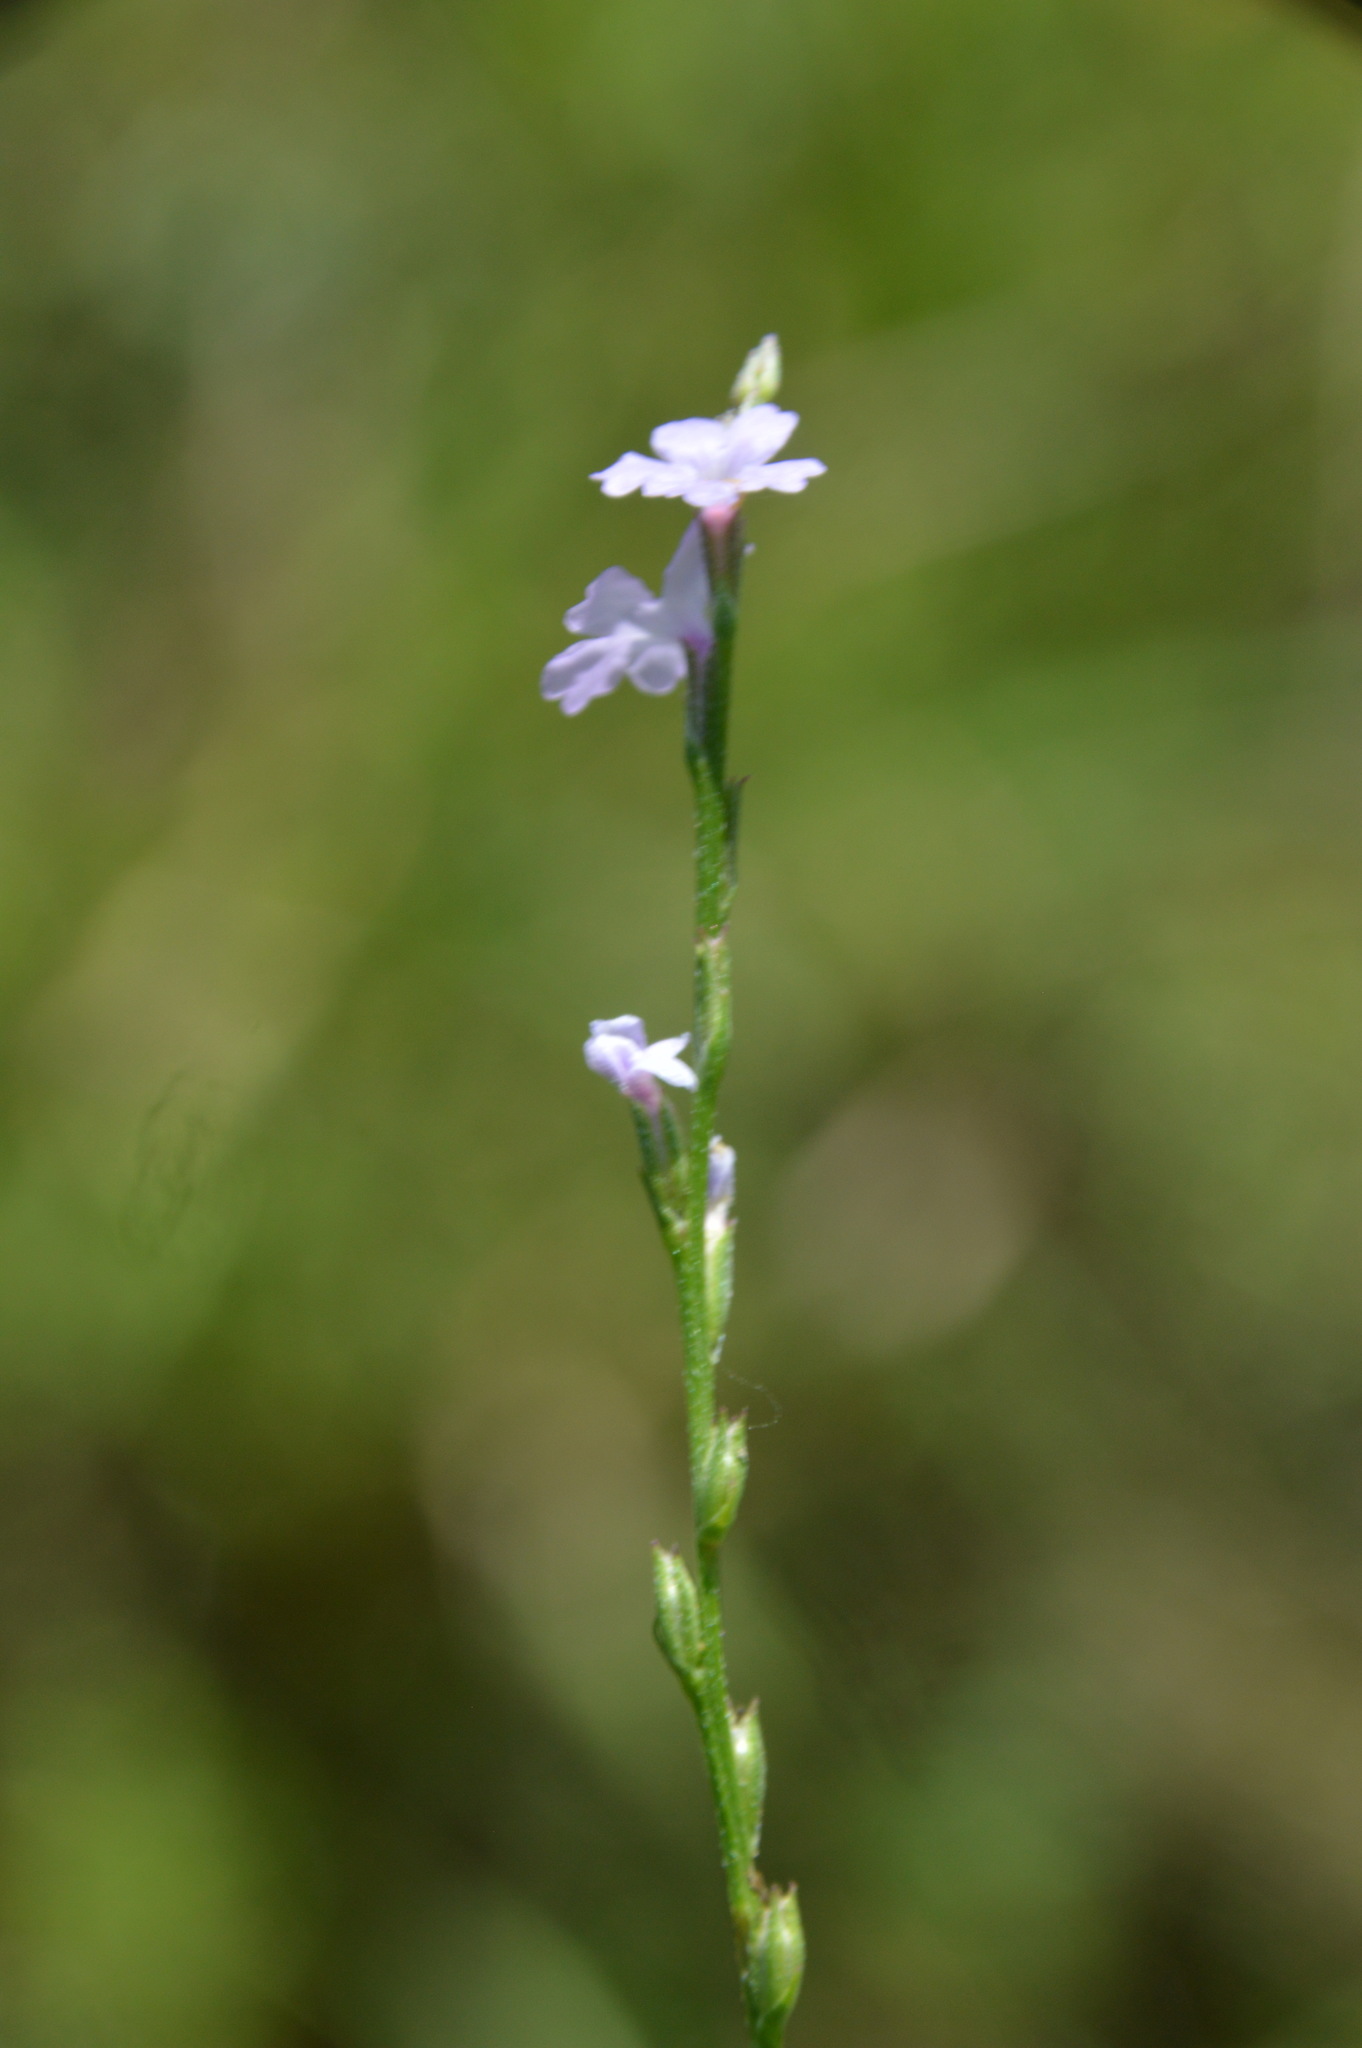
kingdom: Plantae
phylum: Tracheophyta
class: Magnoliopsida
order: Lamiales
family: Verbenaceae
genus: Verbena
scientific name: Verbena halei
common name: Texas vervain
